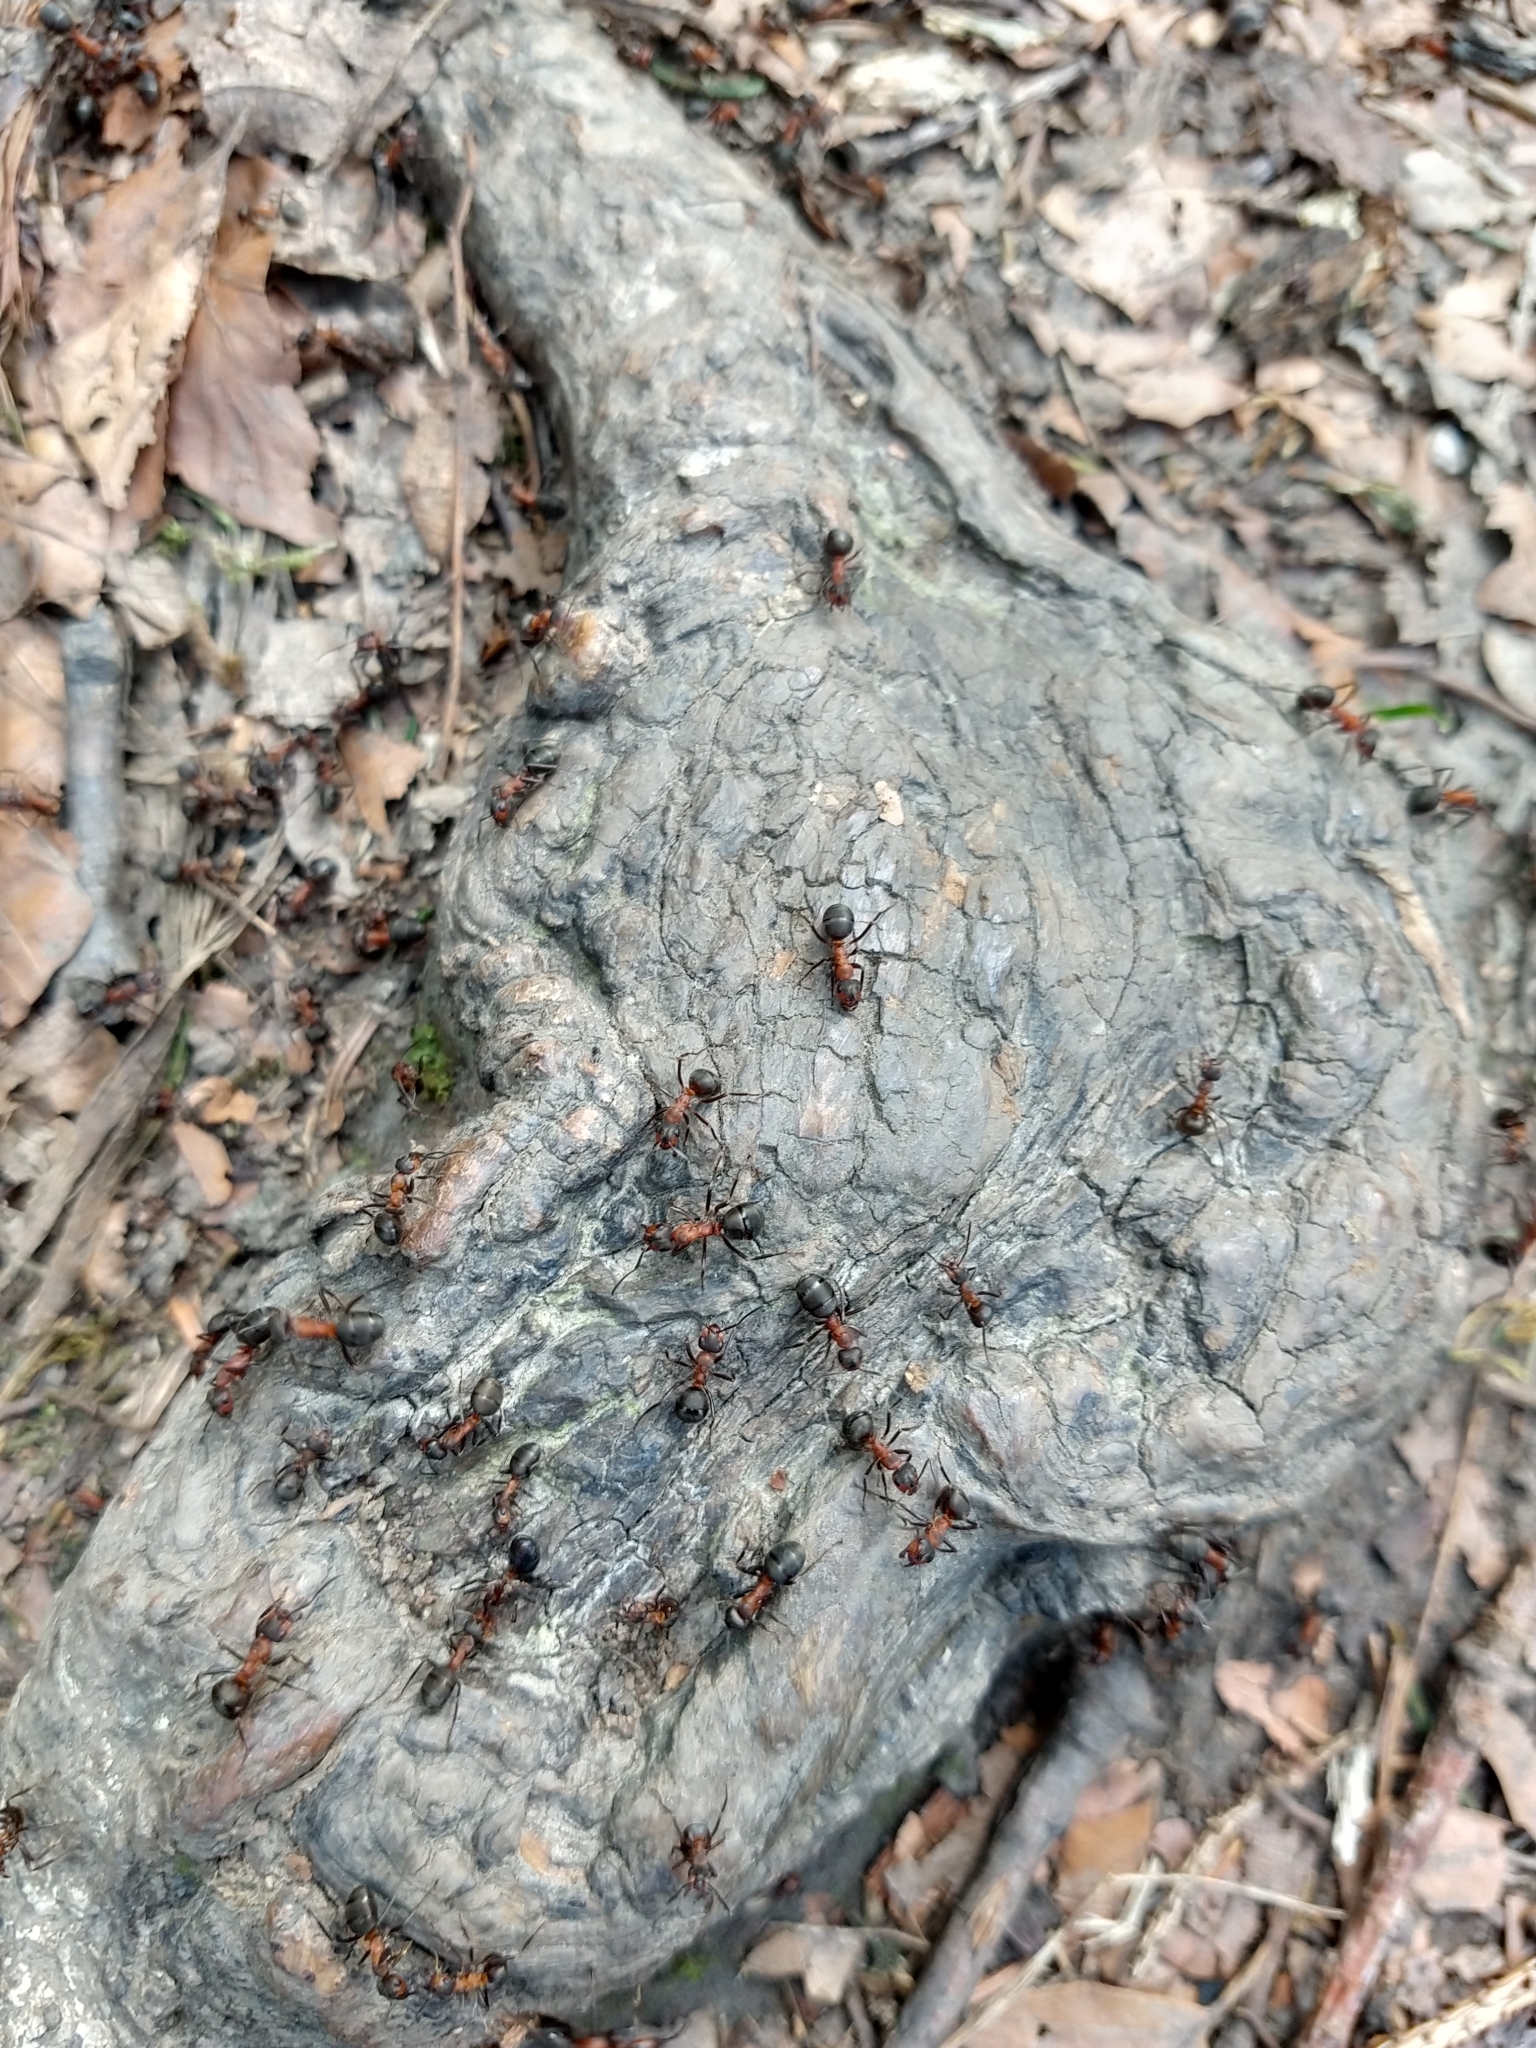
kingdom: Animalia
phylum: Arthropoda
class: Insecta
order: Hymenoptera
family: Formicidae
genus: Formica
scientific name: Formica rufa
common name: Red wood ant
